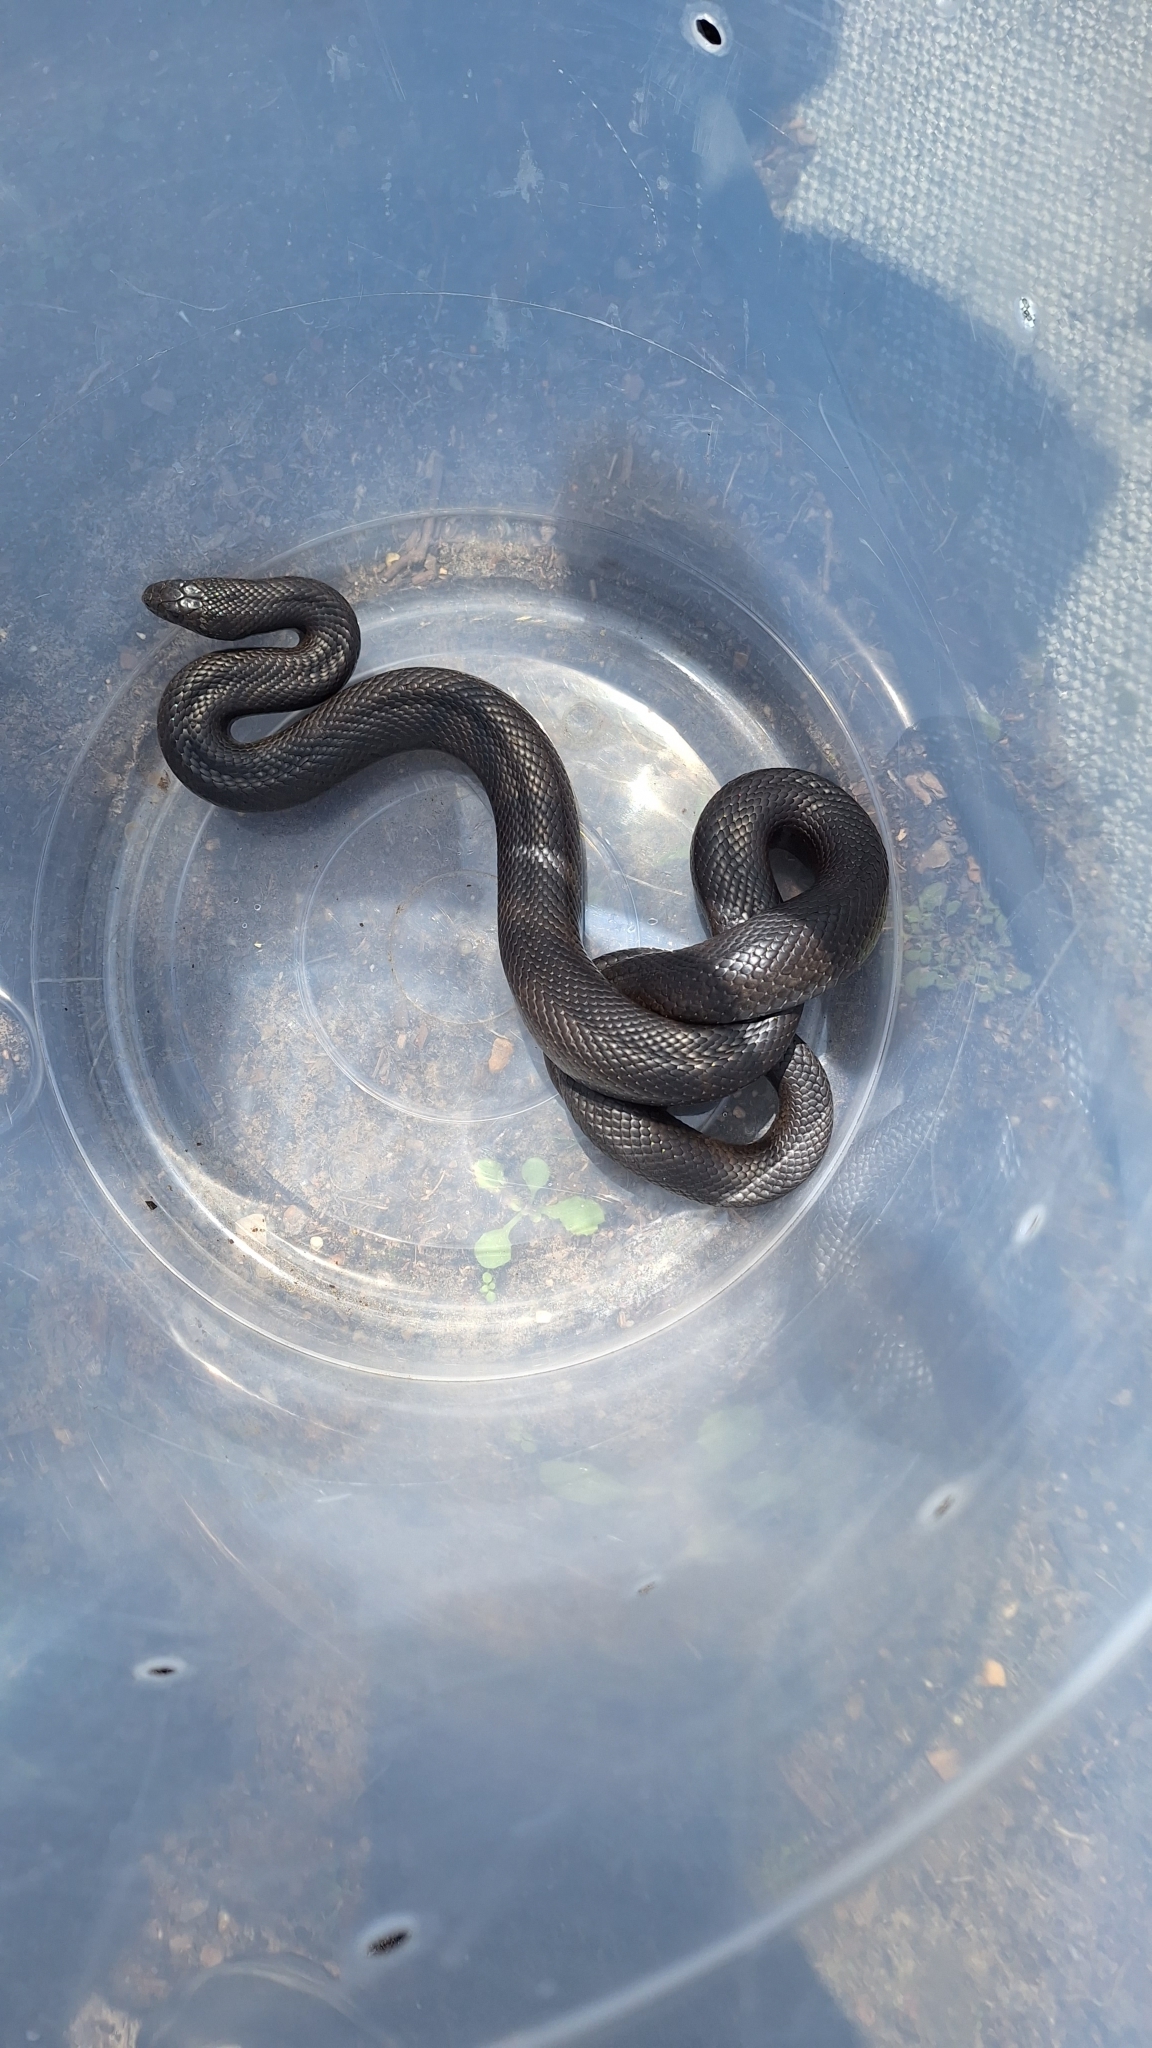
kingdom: Animalia
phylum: Chordata
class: Squamata
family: Pseudaspididae
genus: Pseudaspis
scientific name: Pseudaspis cana
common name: Mole snake
